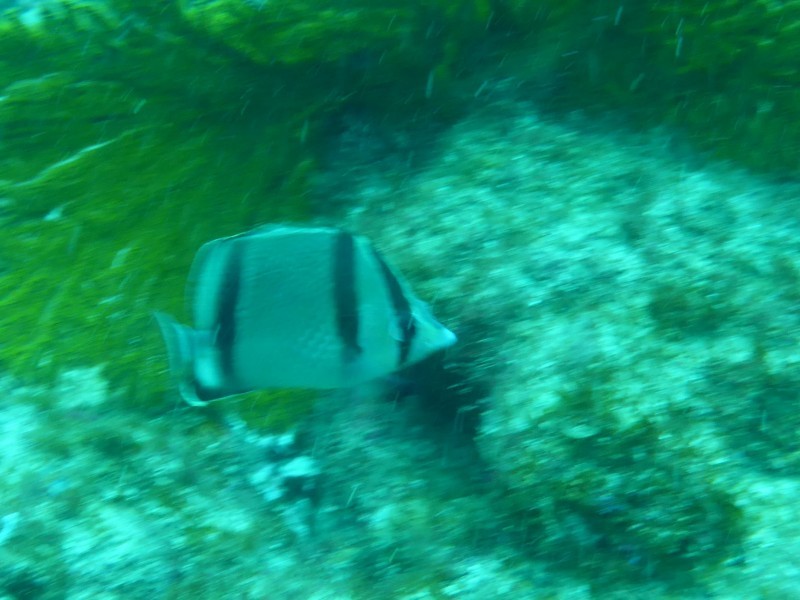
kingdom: Animalia
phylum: Chordata
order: Perciformes
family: Chaetodontidae
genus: Chaetodon
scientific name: Chaetodon humeralis
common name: Threebanded butterflyfish
